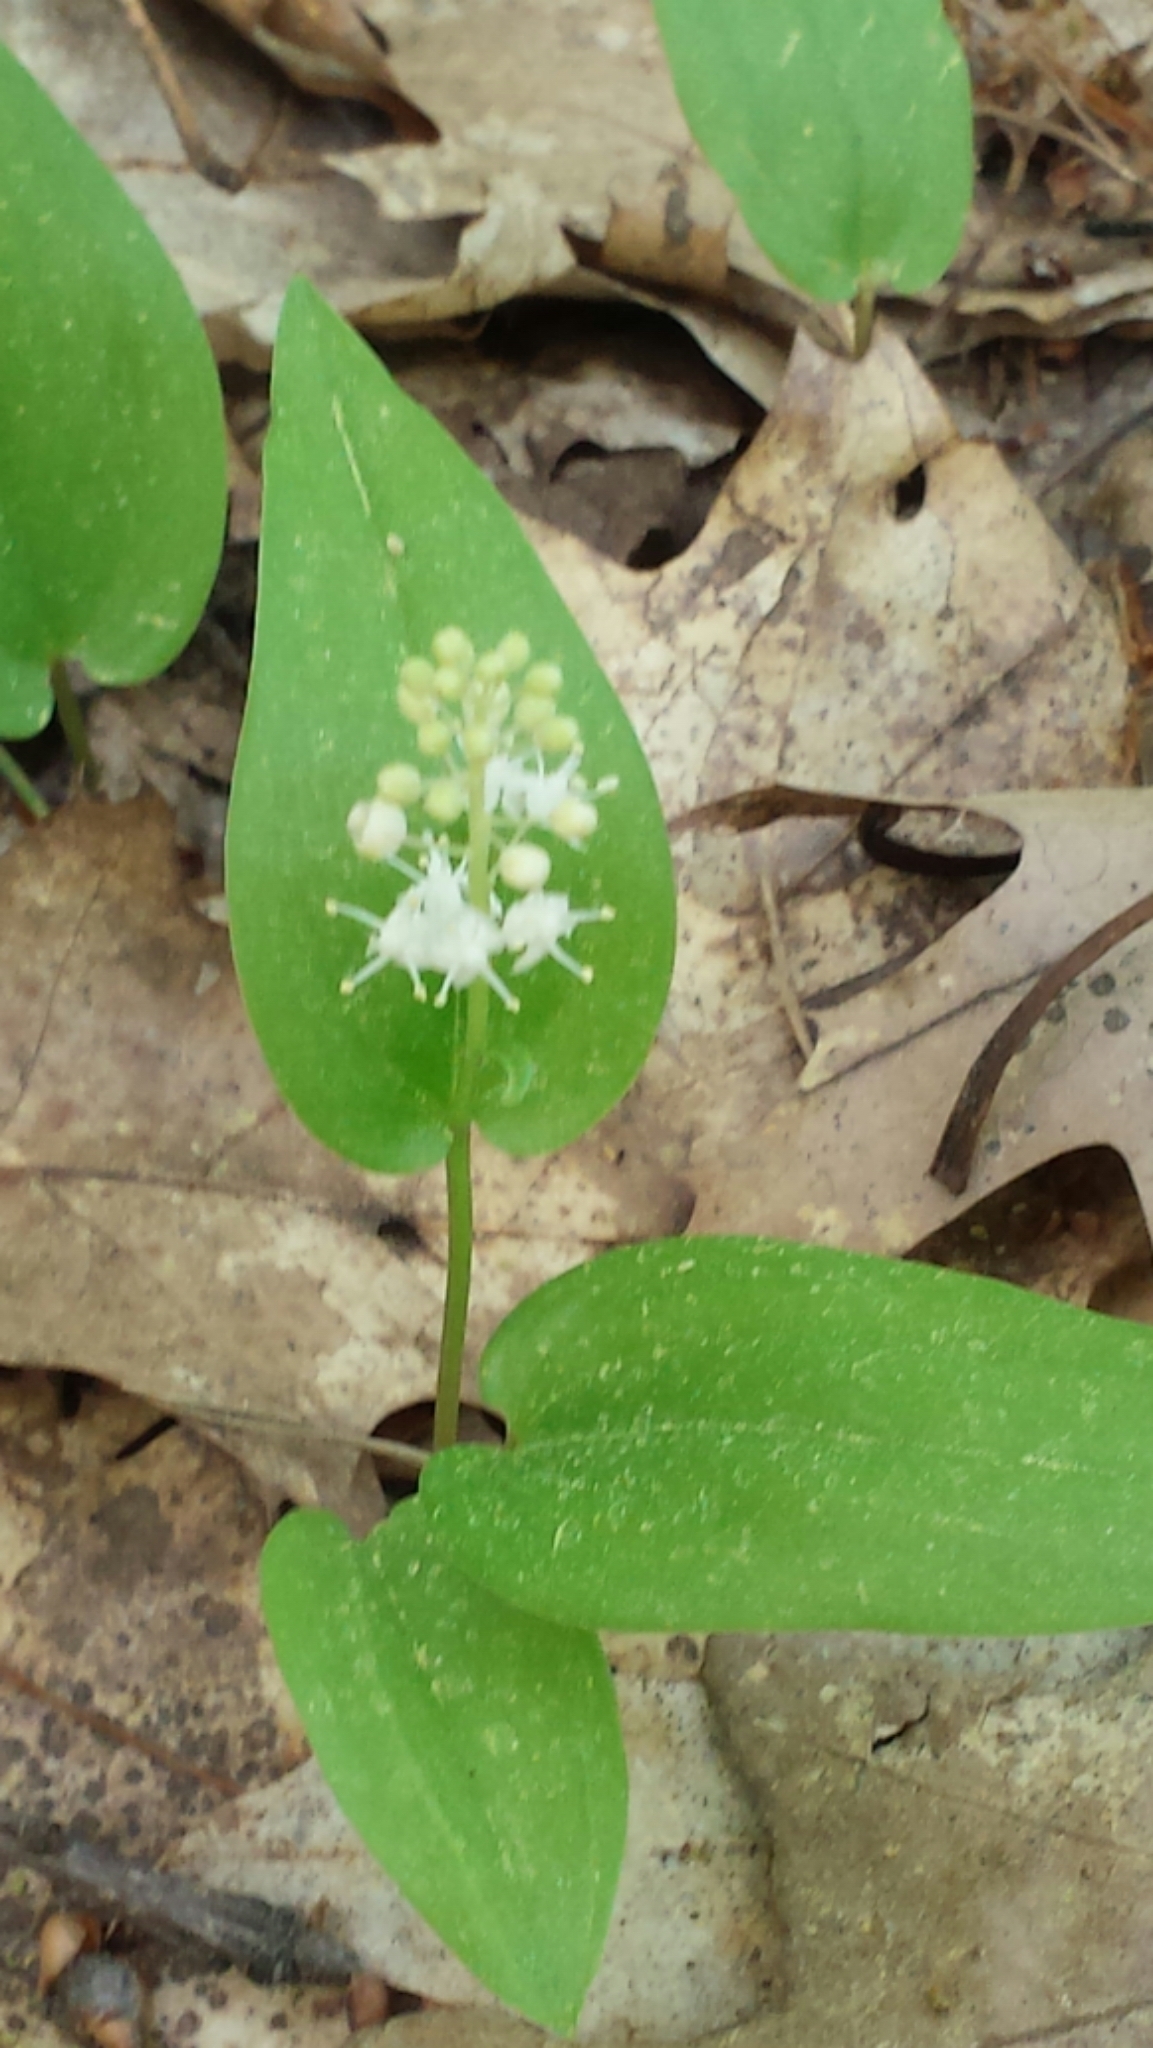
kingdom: Plantae
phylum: Tracheophyta
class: Liliopsida
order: Asparagales
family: Asparagaceae
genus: Maianthemum
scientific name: Maianthemum canadense
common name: False lily-of-the-valley
